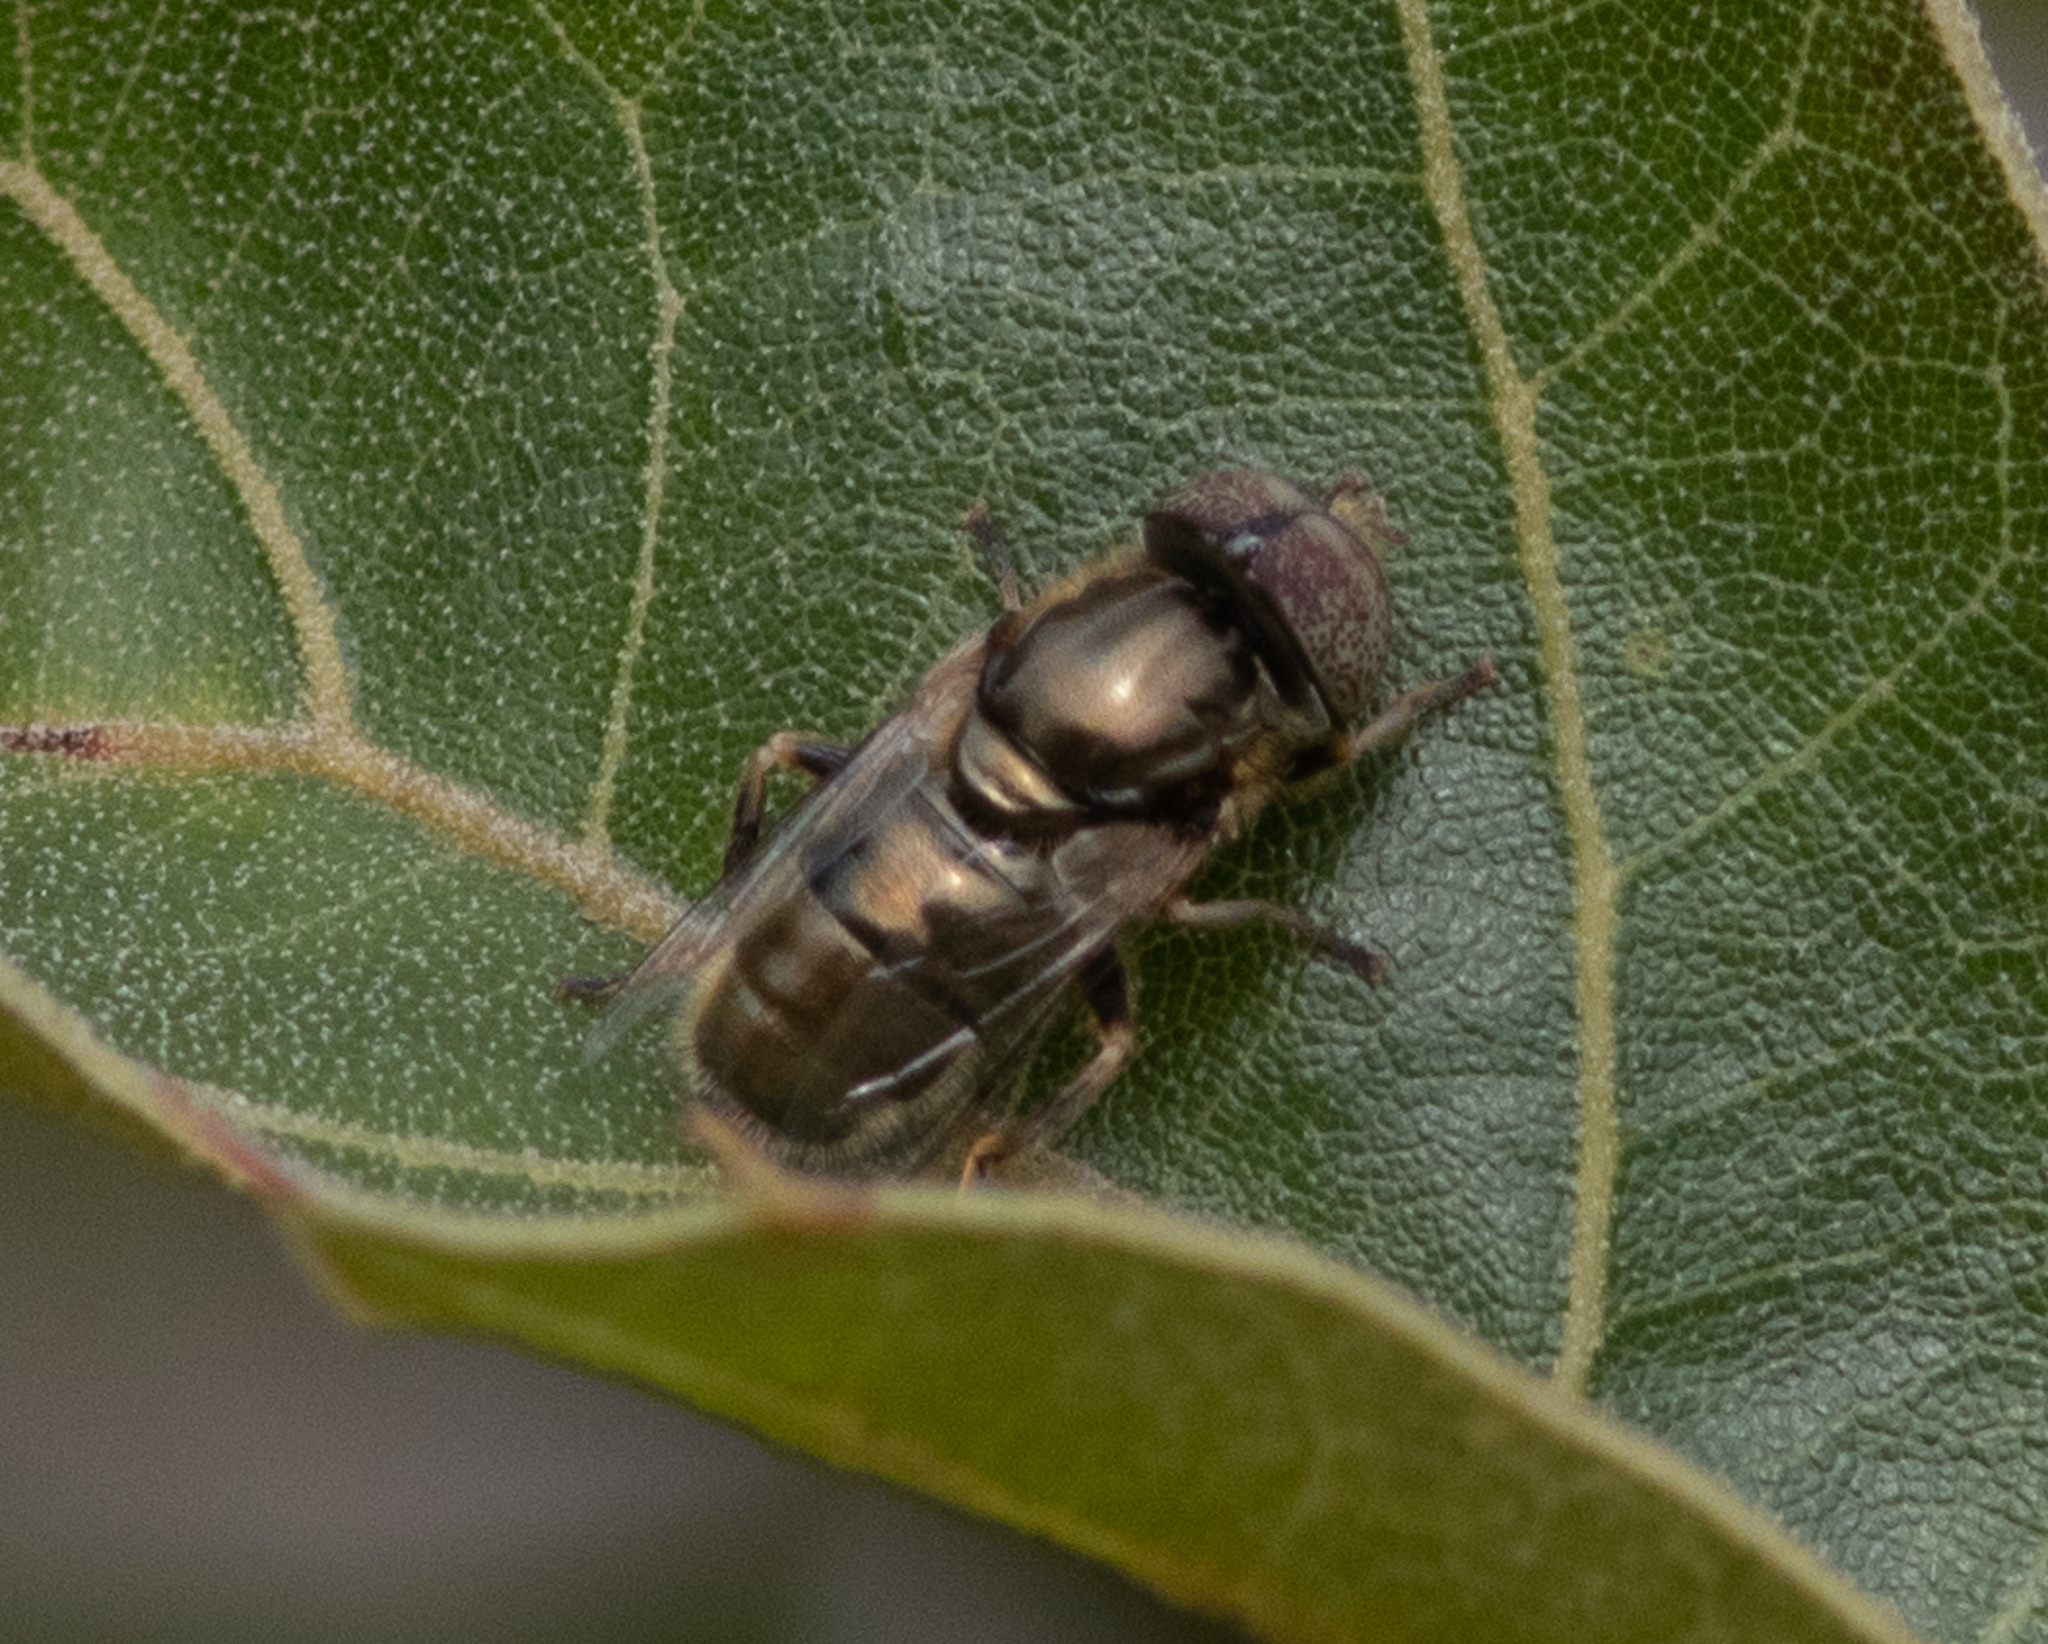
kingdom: Animalia
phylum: Arthropoda
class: Insecta
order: Diptera
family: Syrphidae
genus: Eristalinus
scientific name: Eristalinus aeneus
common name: Syrphid fly
